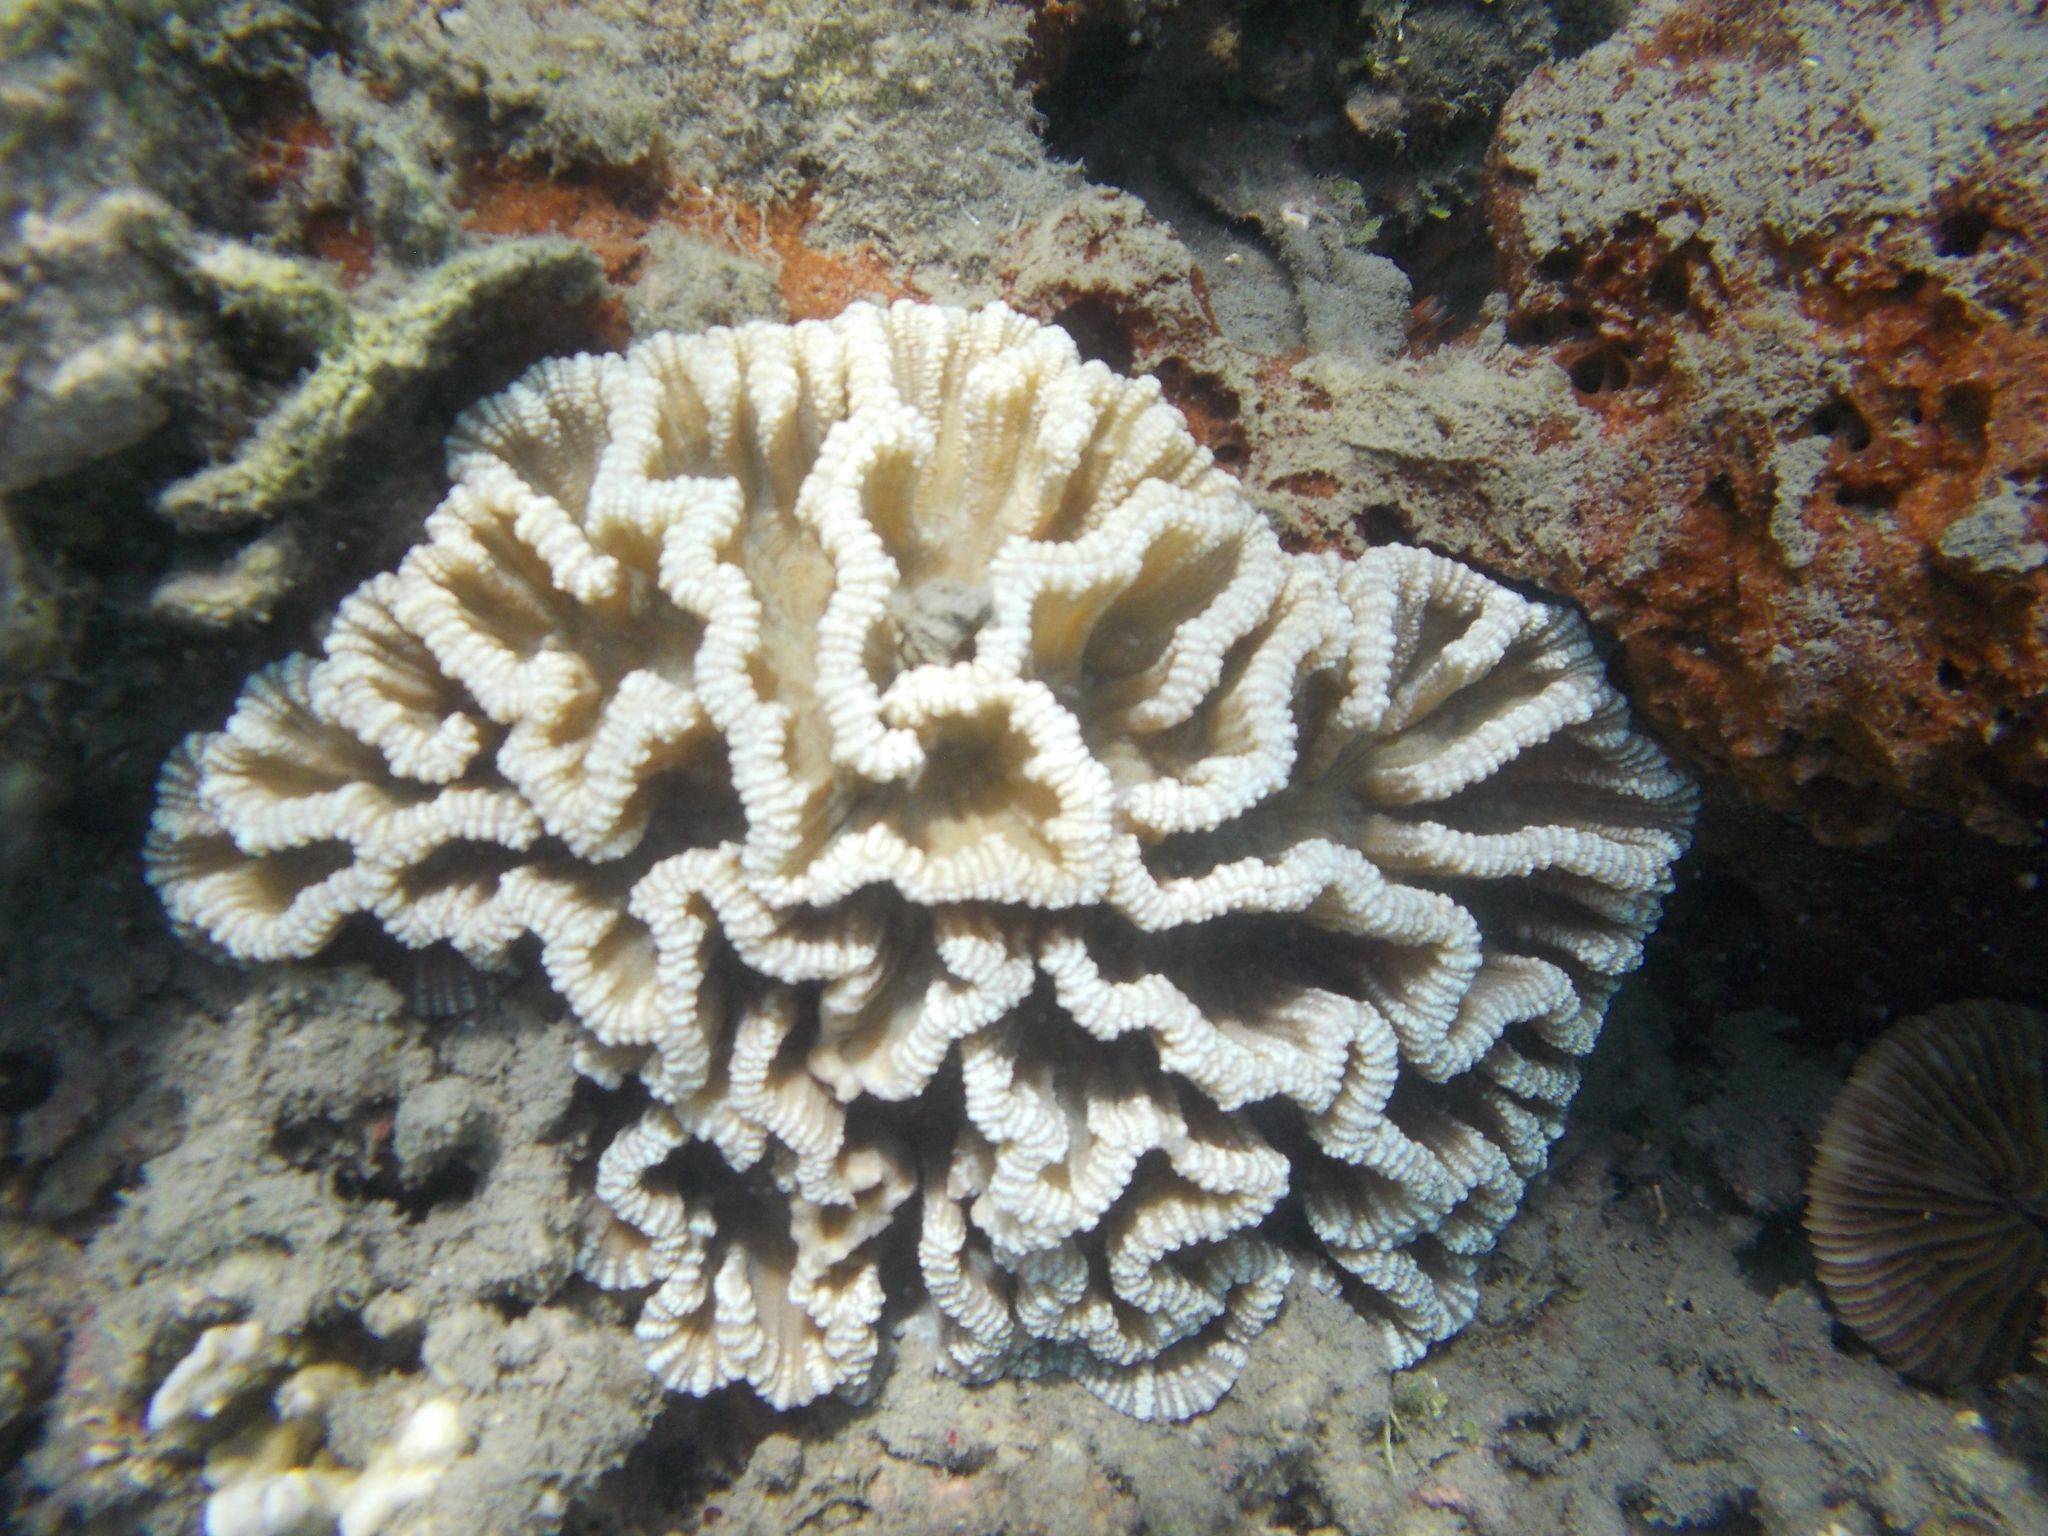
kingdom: Animalia
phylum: Cnidaria
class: Anthozoa
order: Scleractinia
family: Merulinidae
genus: Pectinia
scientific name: Pectinia lactuca
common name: Common lettuce coral
